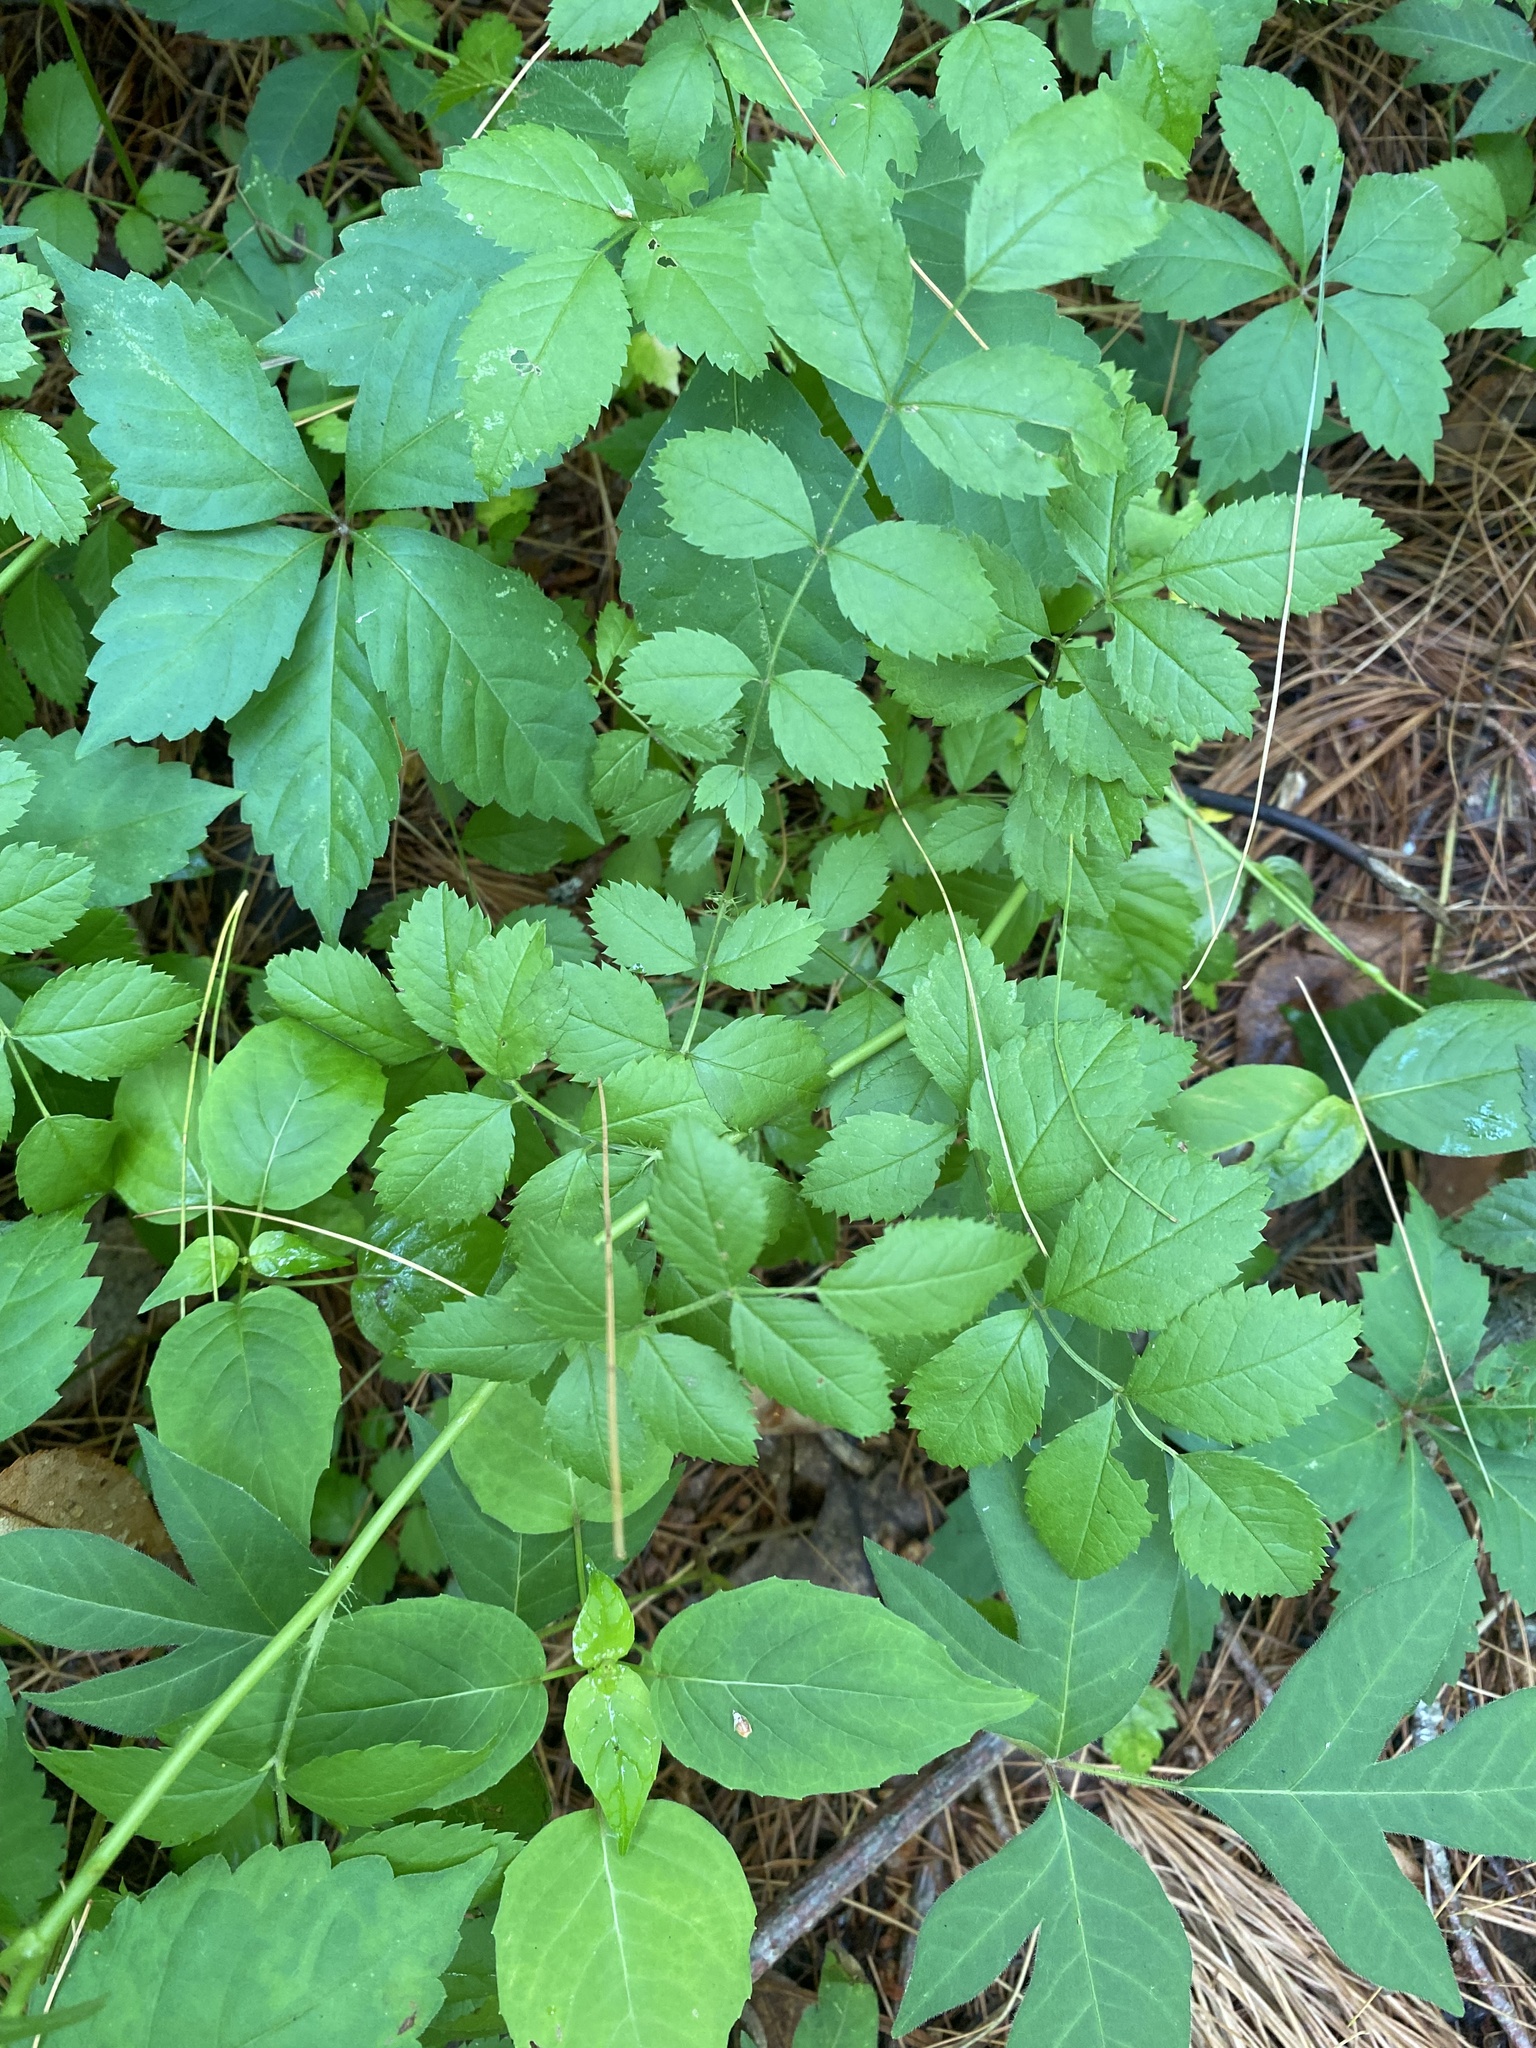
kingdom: Plantae
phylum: Tracheophyta
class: Magnoliopsida
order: Rosales
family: Rosaceae
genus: Rosa
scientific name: Rosa multiflora
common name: Multiflora rose
